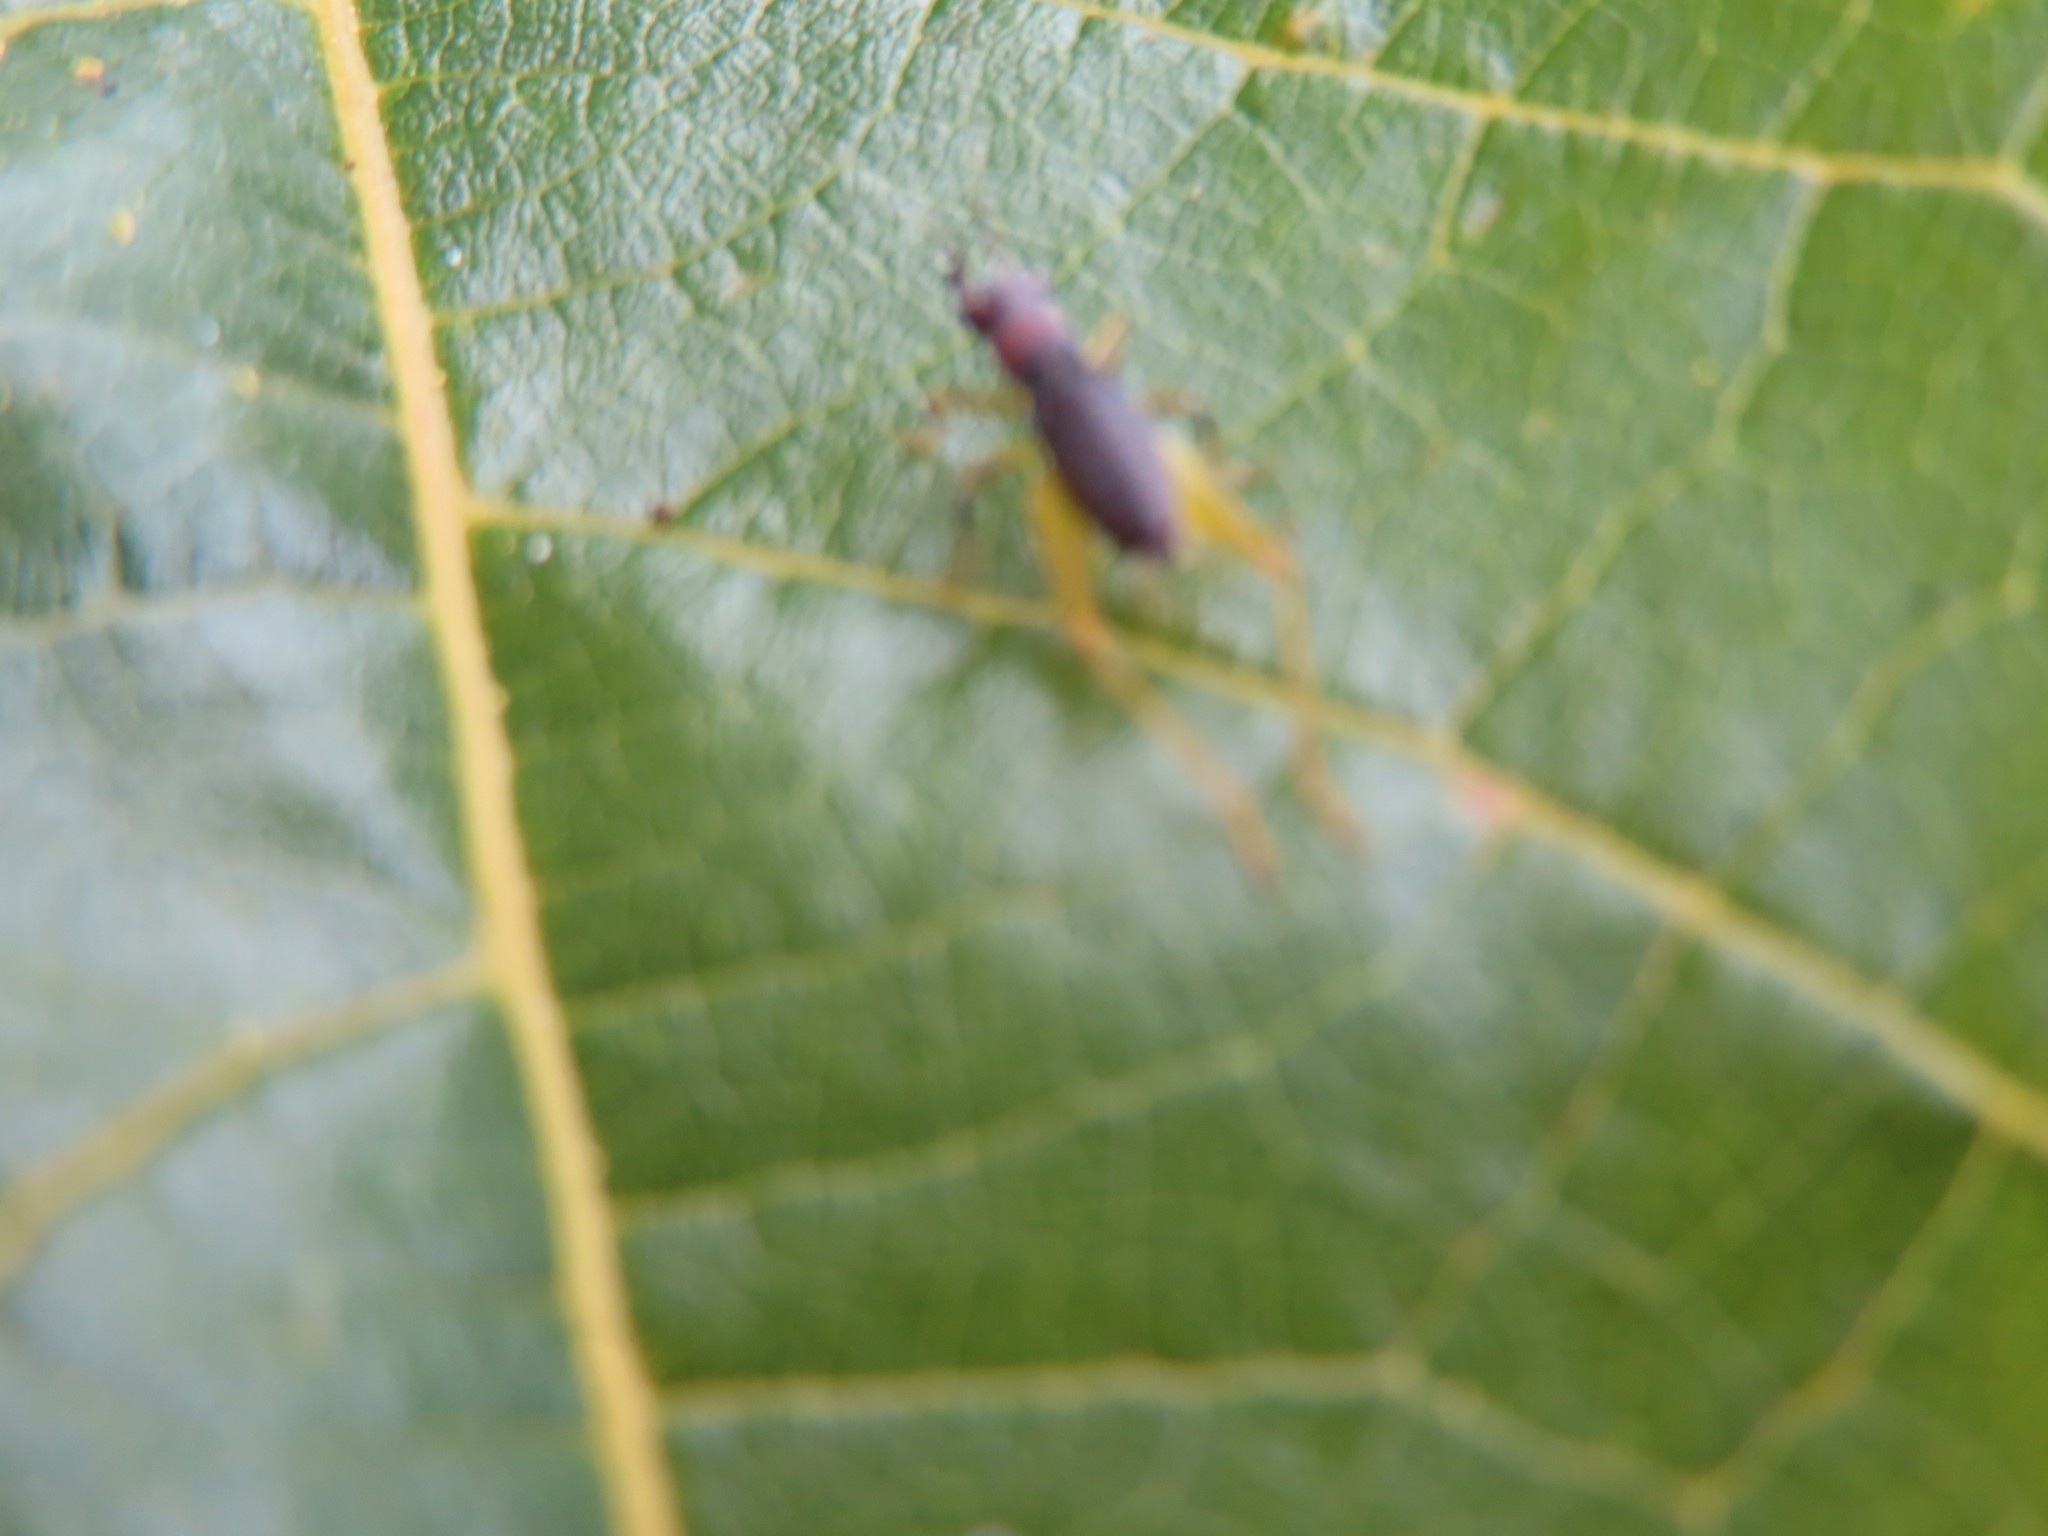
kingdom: Animalia
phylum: Arthropoda
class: Insecta
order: Orthoptera
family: Trigonidiidae
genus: Phyllopalpus
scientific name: Phyllopalpus pulchellus
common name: Handsome trig
